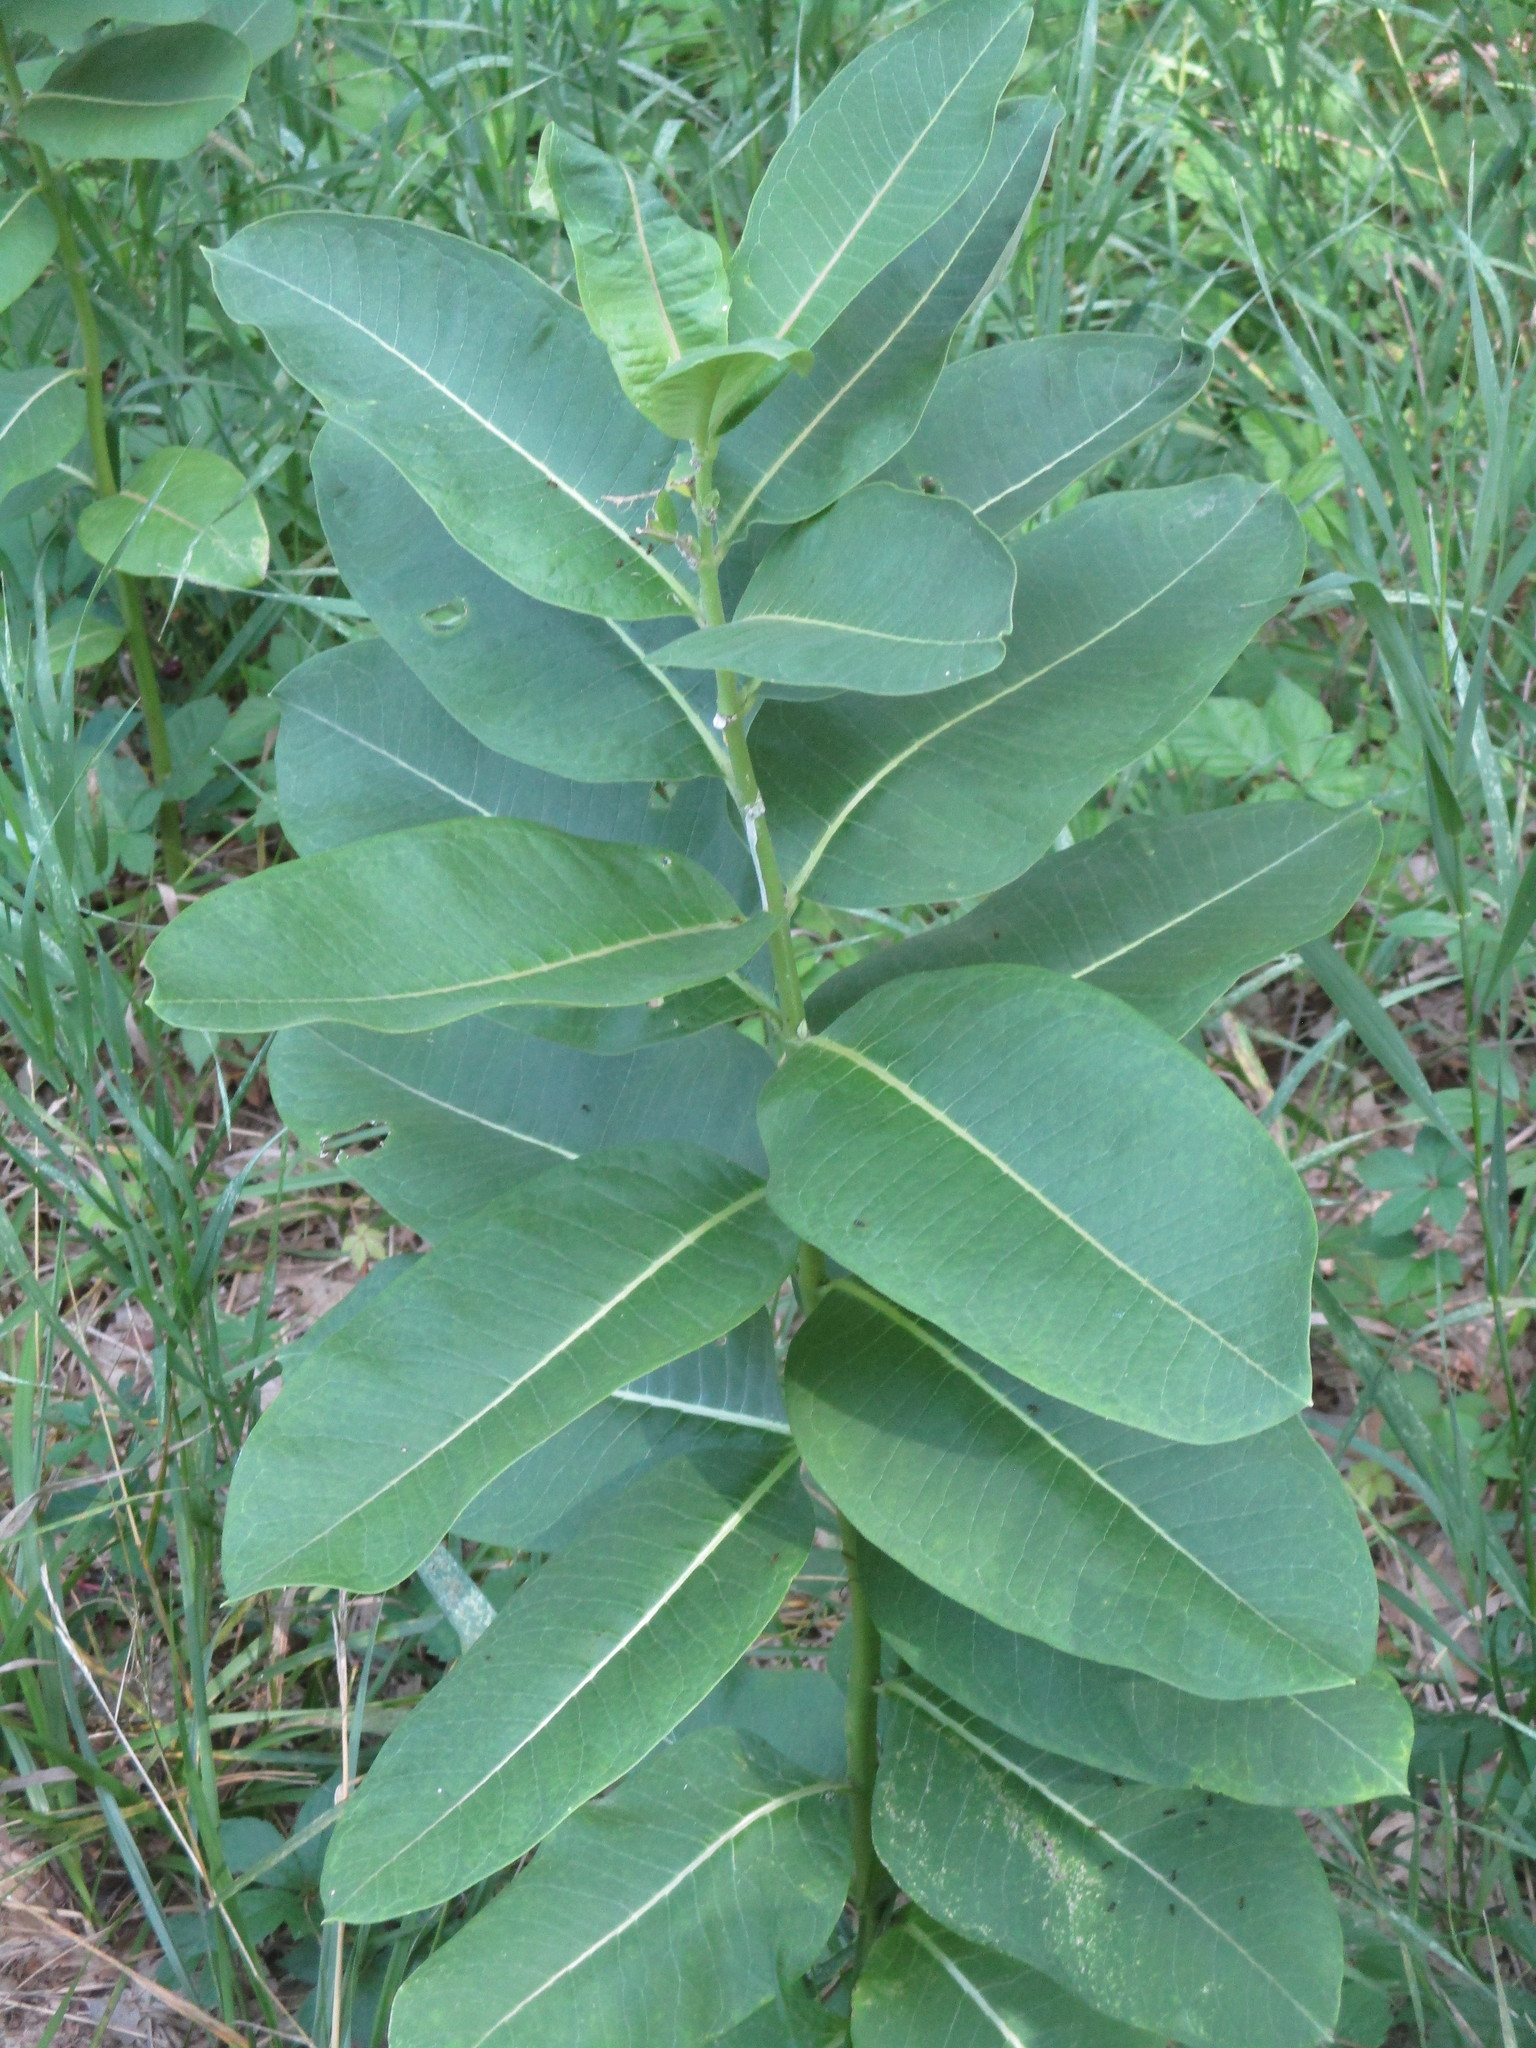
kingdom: Plantae
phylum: Tracheophyta
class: Magnoliopsida
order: Gentianales
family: Apocynaceae
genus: Asclepias
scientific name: Asclepias syriaca
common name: Common milkweed
